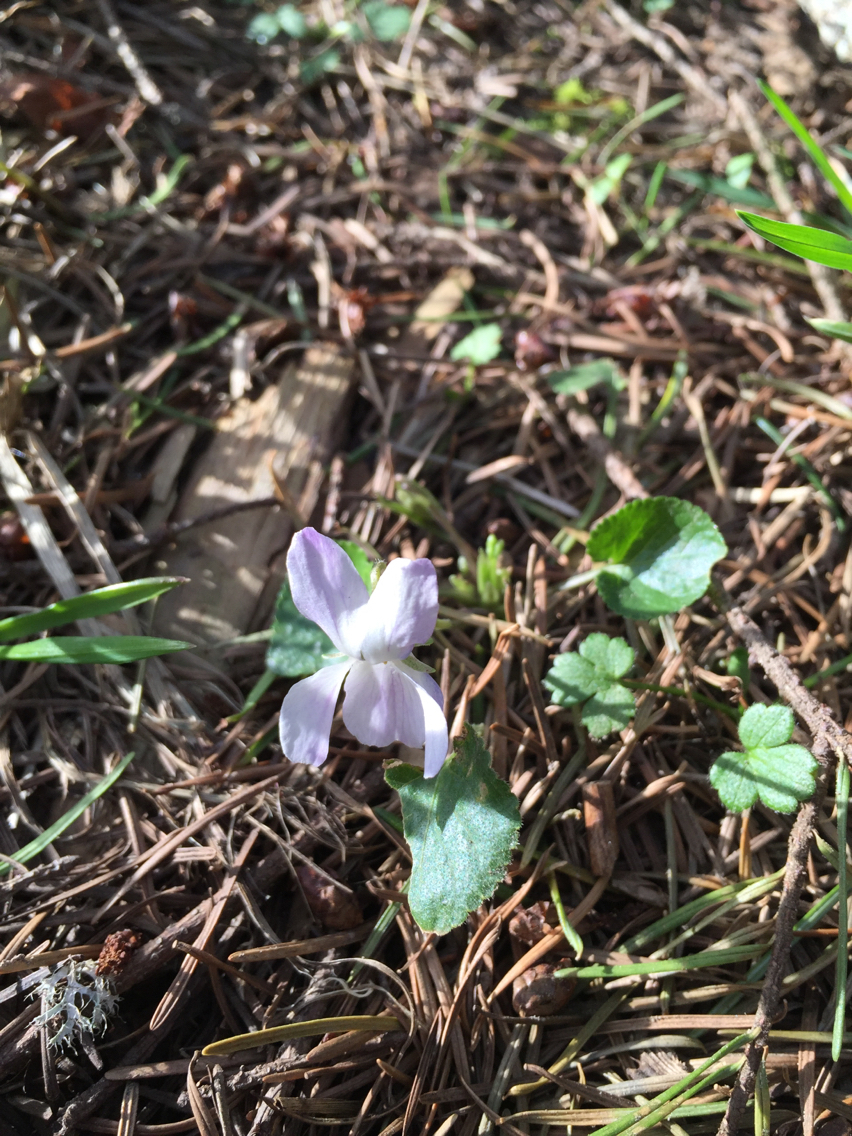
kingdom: Plantae
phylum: Tracheophyta
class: Magnoliopsida
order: Malpighiales
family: Violaceae
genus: Viola
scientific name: Viola odorata
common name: Sweet violet
